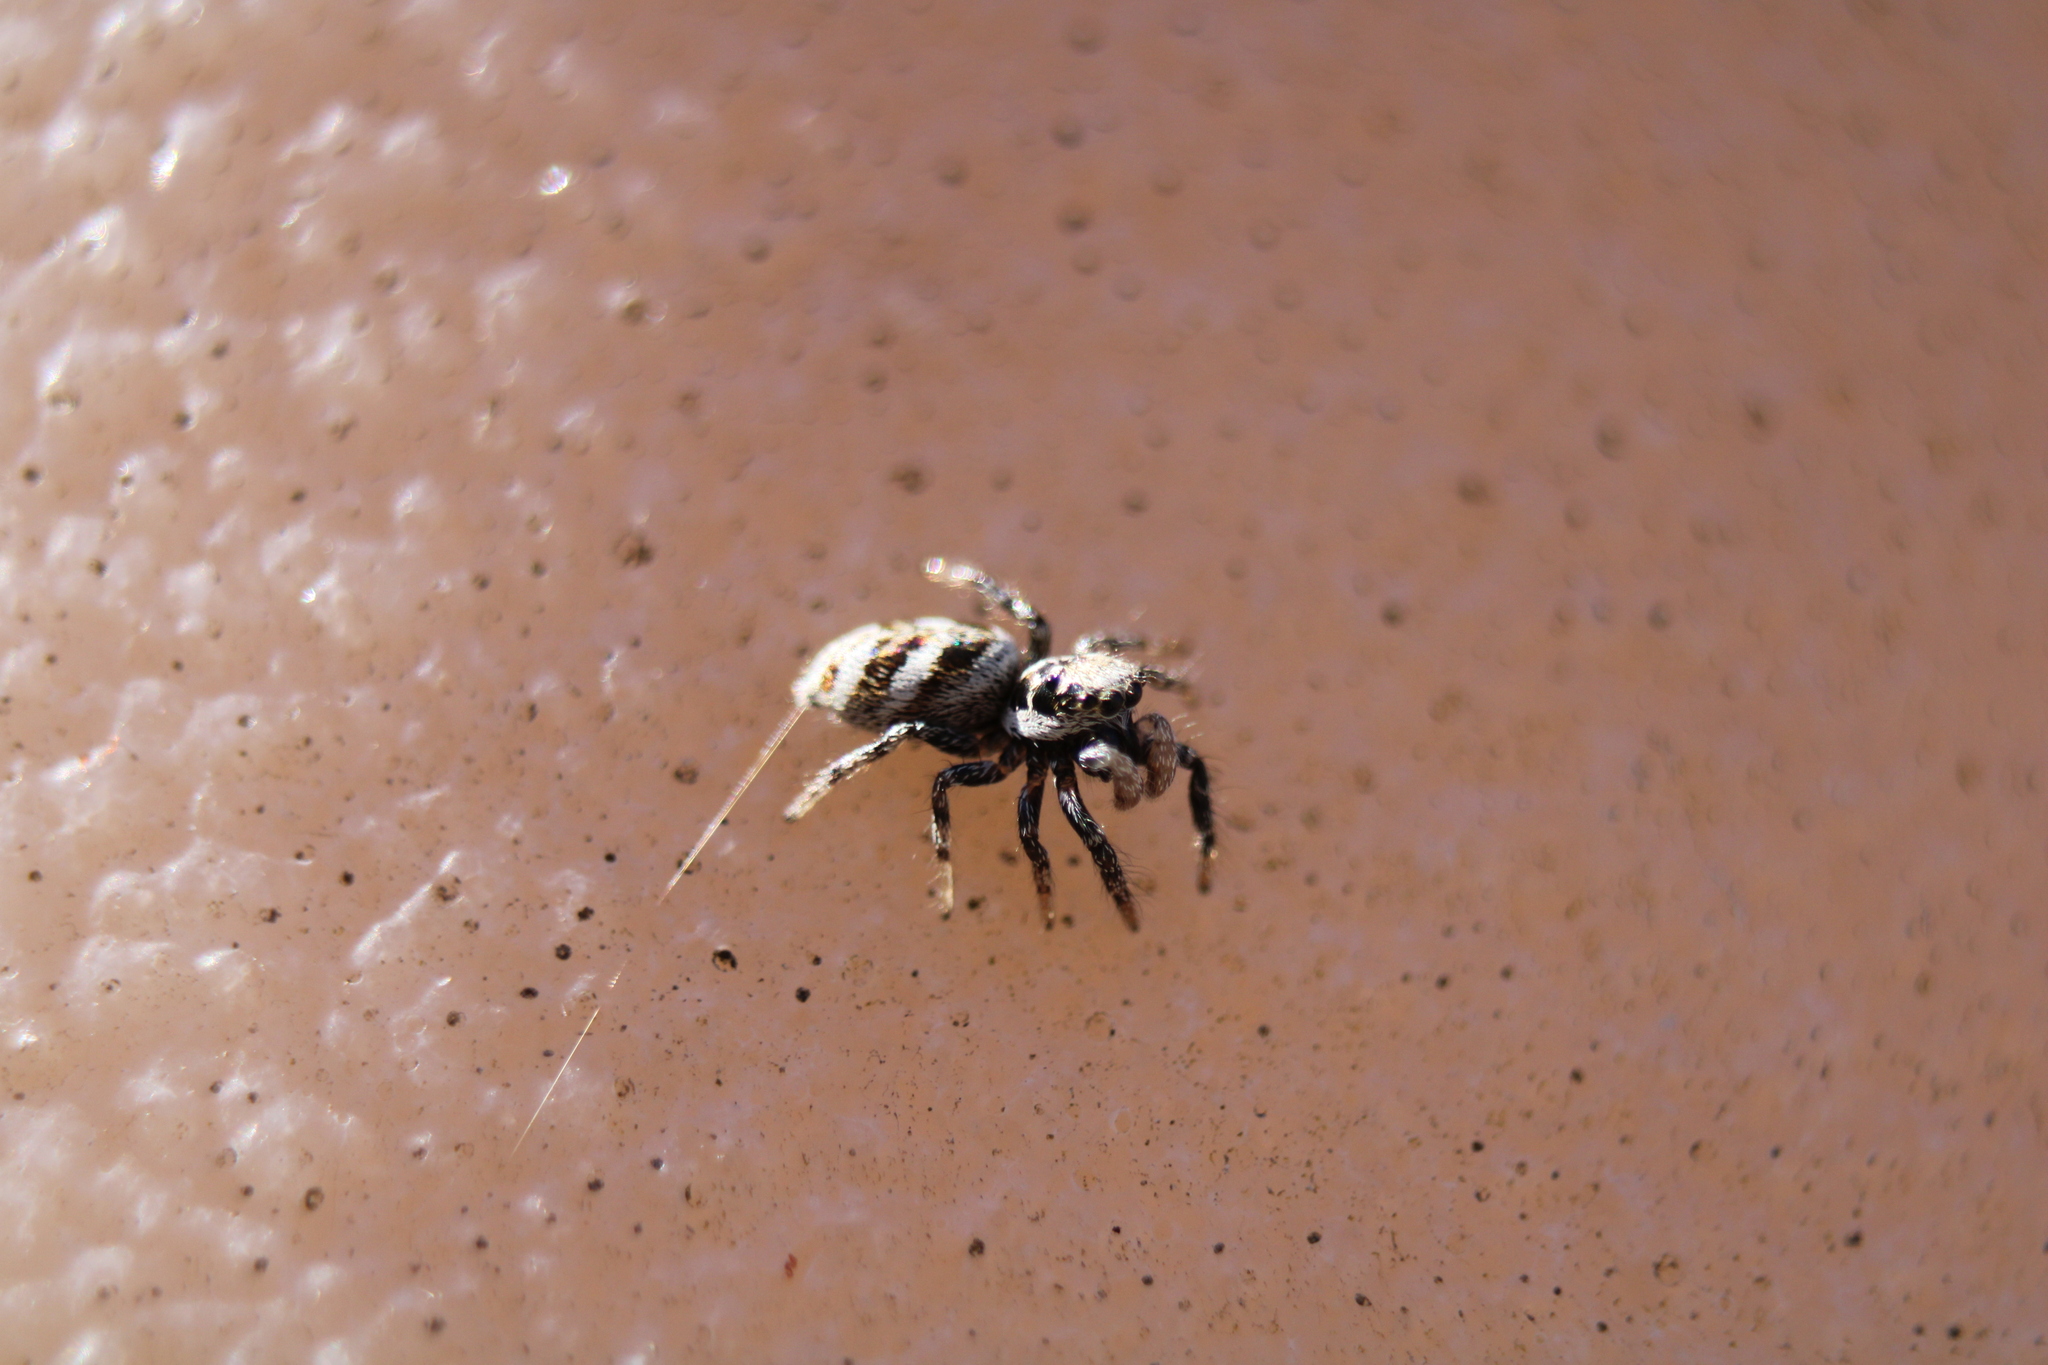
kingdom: Animalia
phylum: Arthropoda
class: Arachnida
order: Araneae
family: Salticidae
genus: Salticus
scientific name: Salticus scenicus
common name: Zebra jumper
